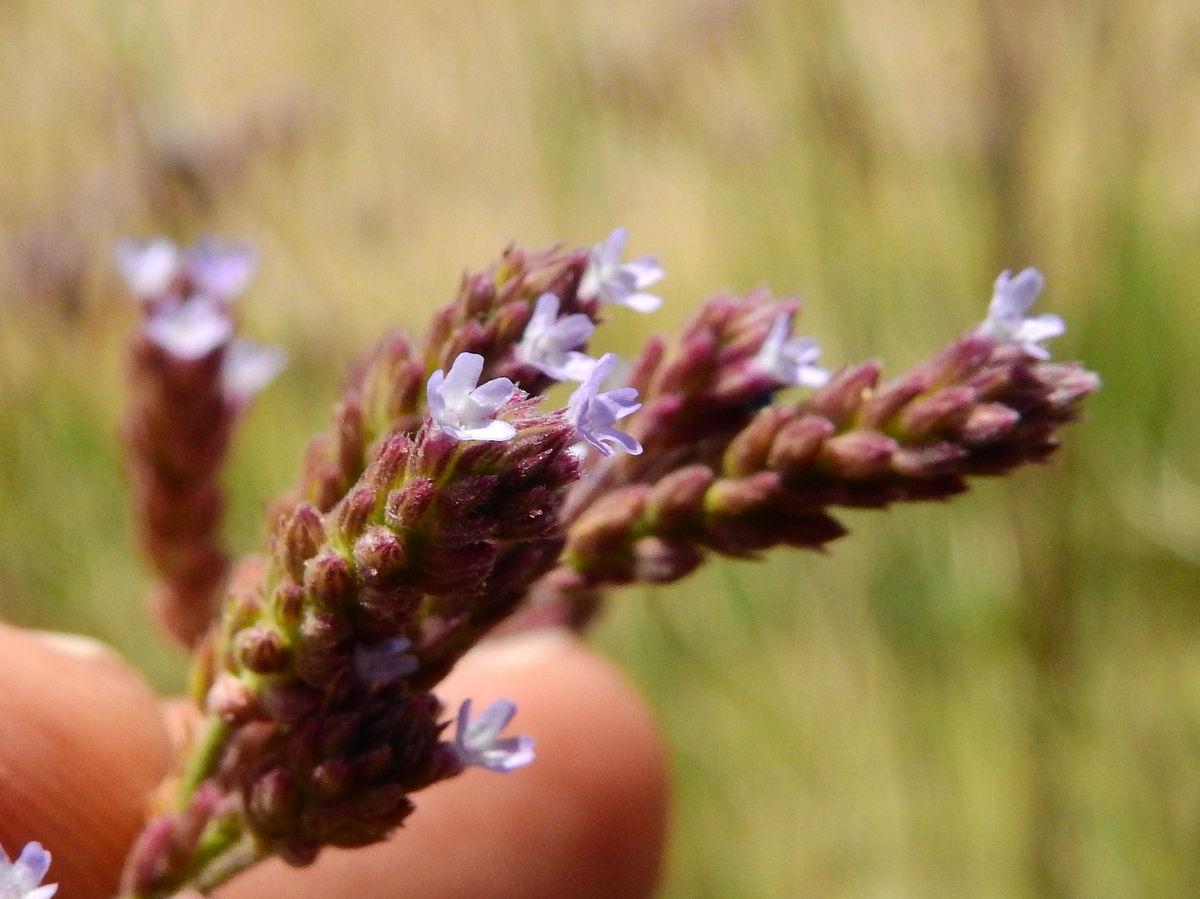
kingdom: Plantae
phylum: Tracheophyta
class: Magnoliopsida
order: Lamiales
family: Verbenaceae
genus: Verbena
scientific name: Verbena bonariensis
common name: Purpletop vervain
